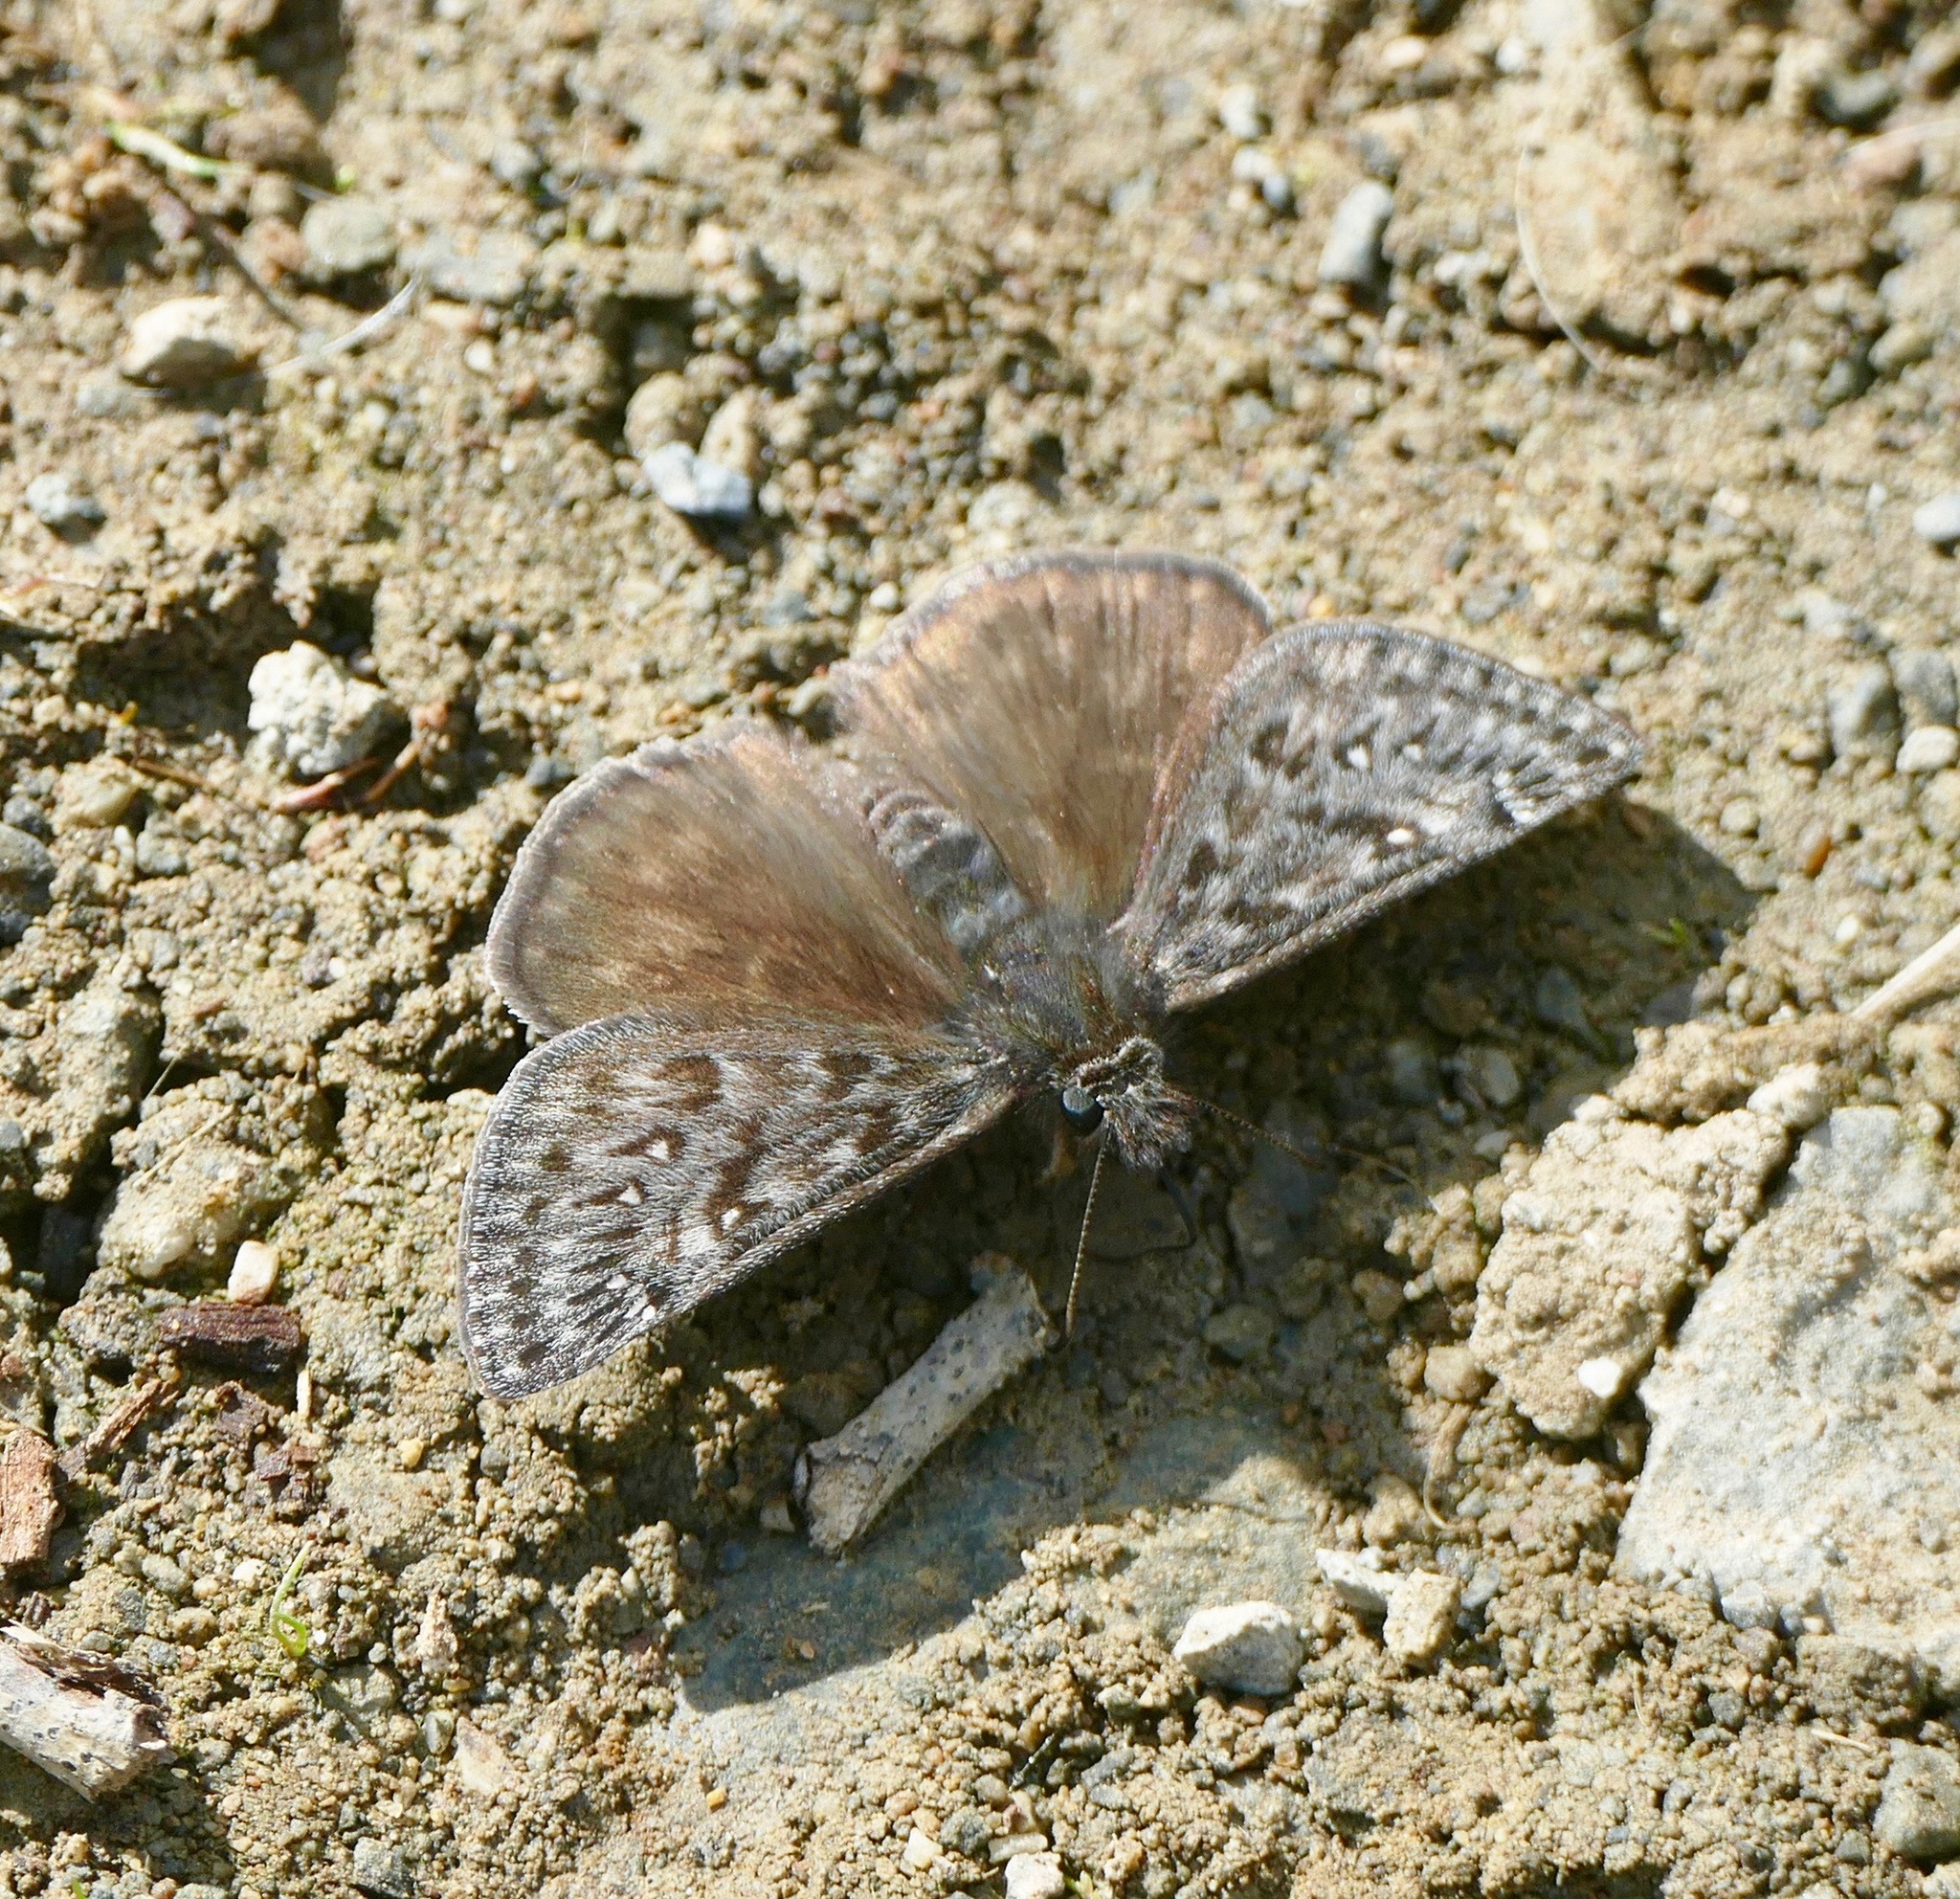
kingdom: Animalia
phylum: Arthropoda
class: Insecta
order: Lepidoptera
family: Hesperiidae
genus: Erynnis
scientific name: Erynnis propertius
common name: Propertius duskywing
